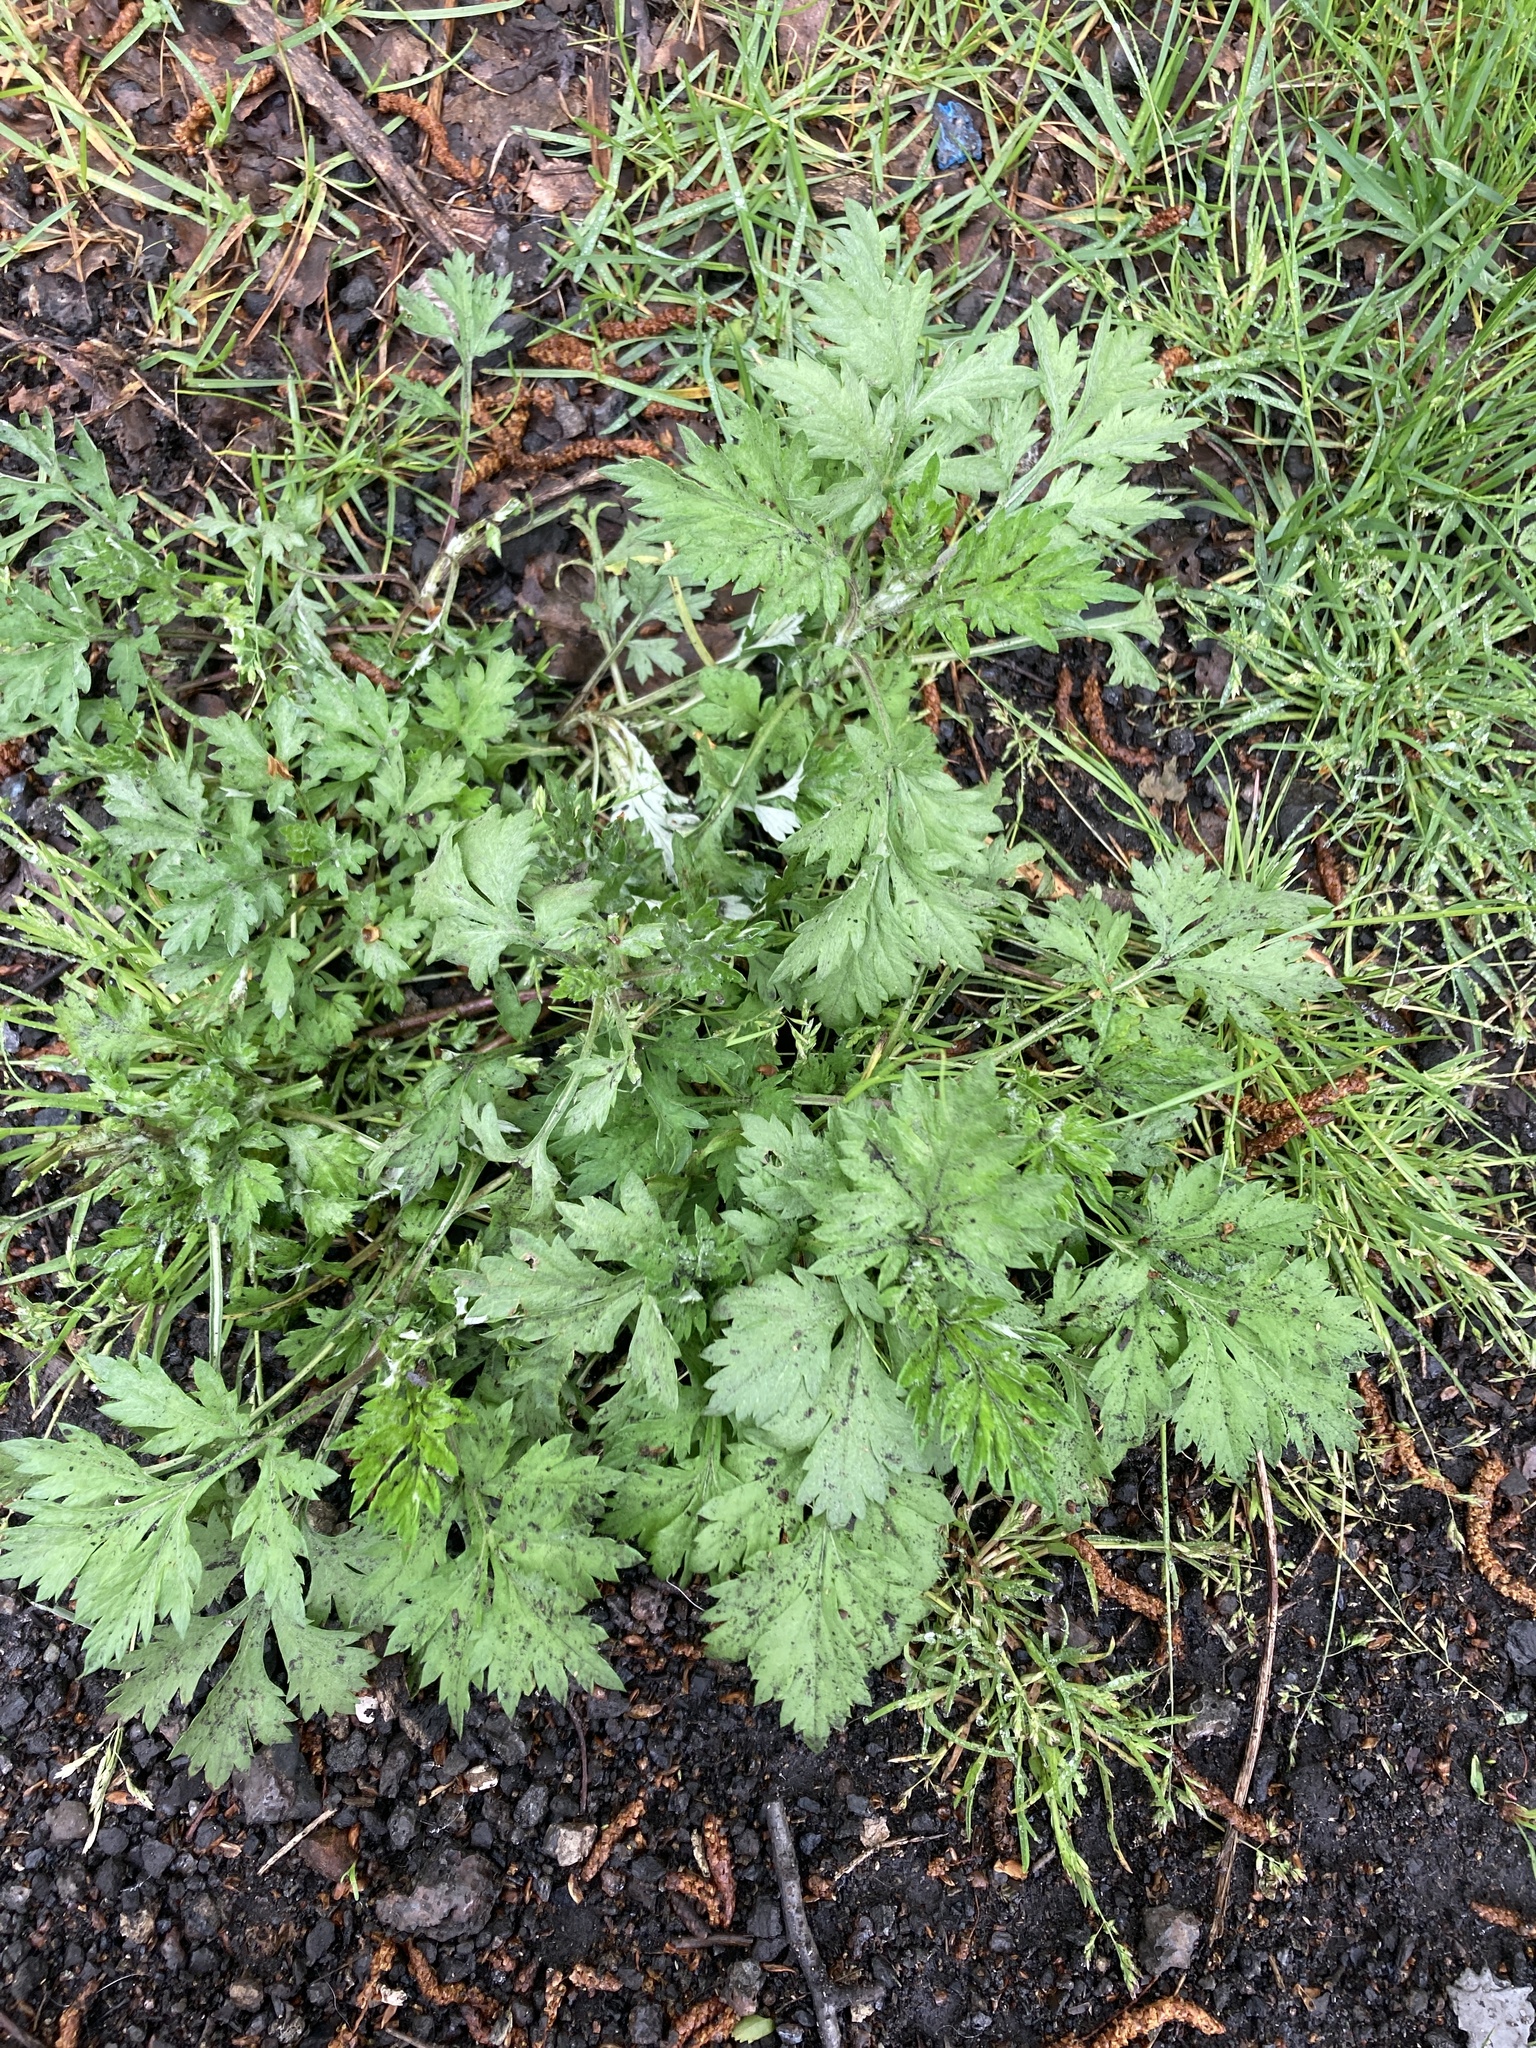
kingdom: Plantae
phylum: Tracheophyta
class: Magnoliopsida
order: Asterales
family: Asteraceae
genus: Artemisia
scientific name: Artemisia vulgaris
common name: Mugwort
